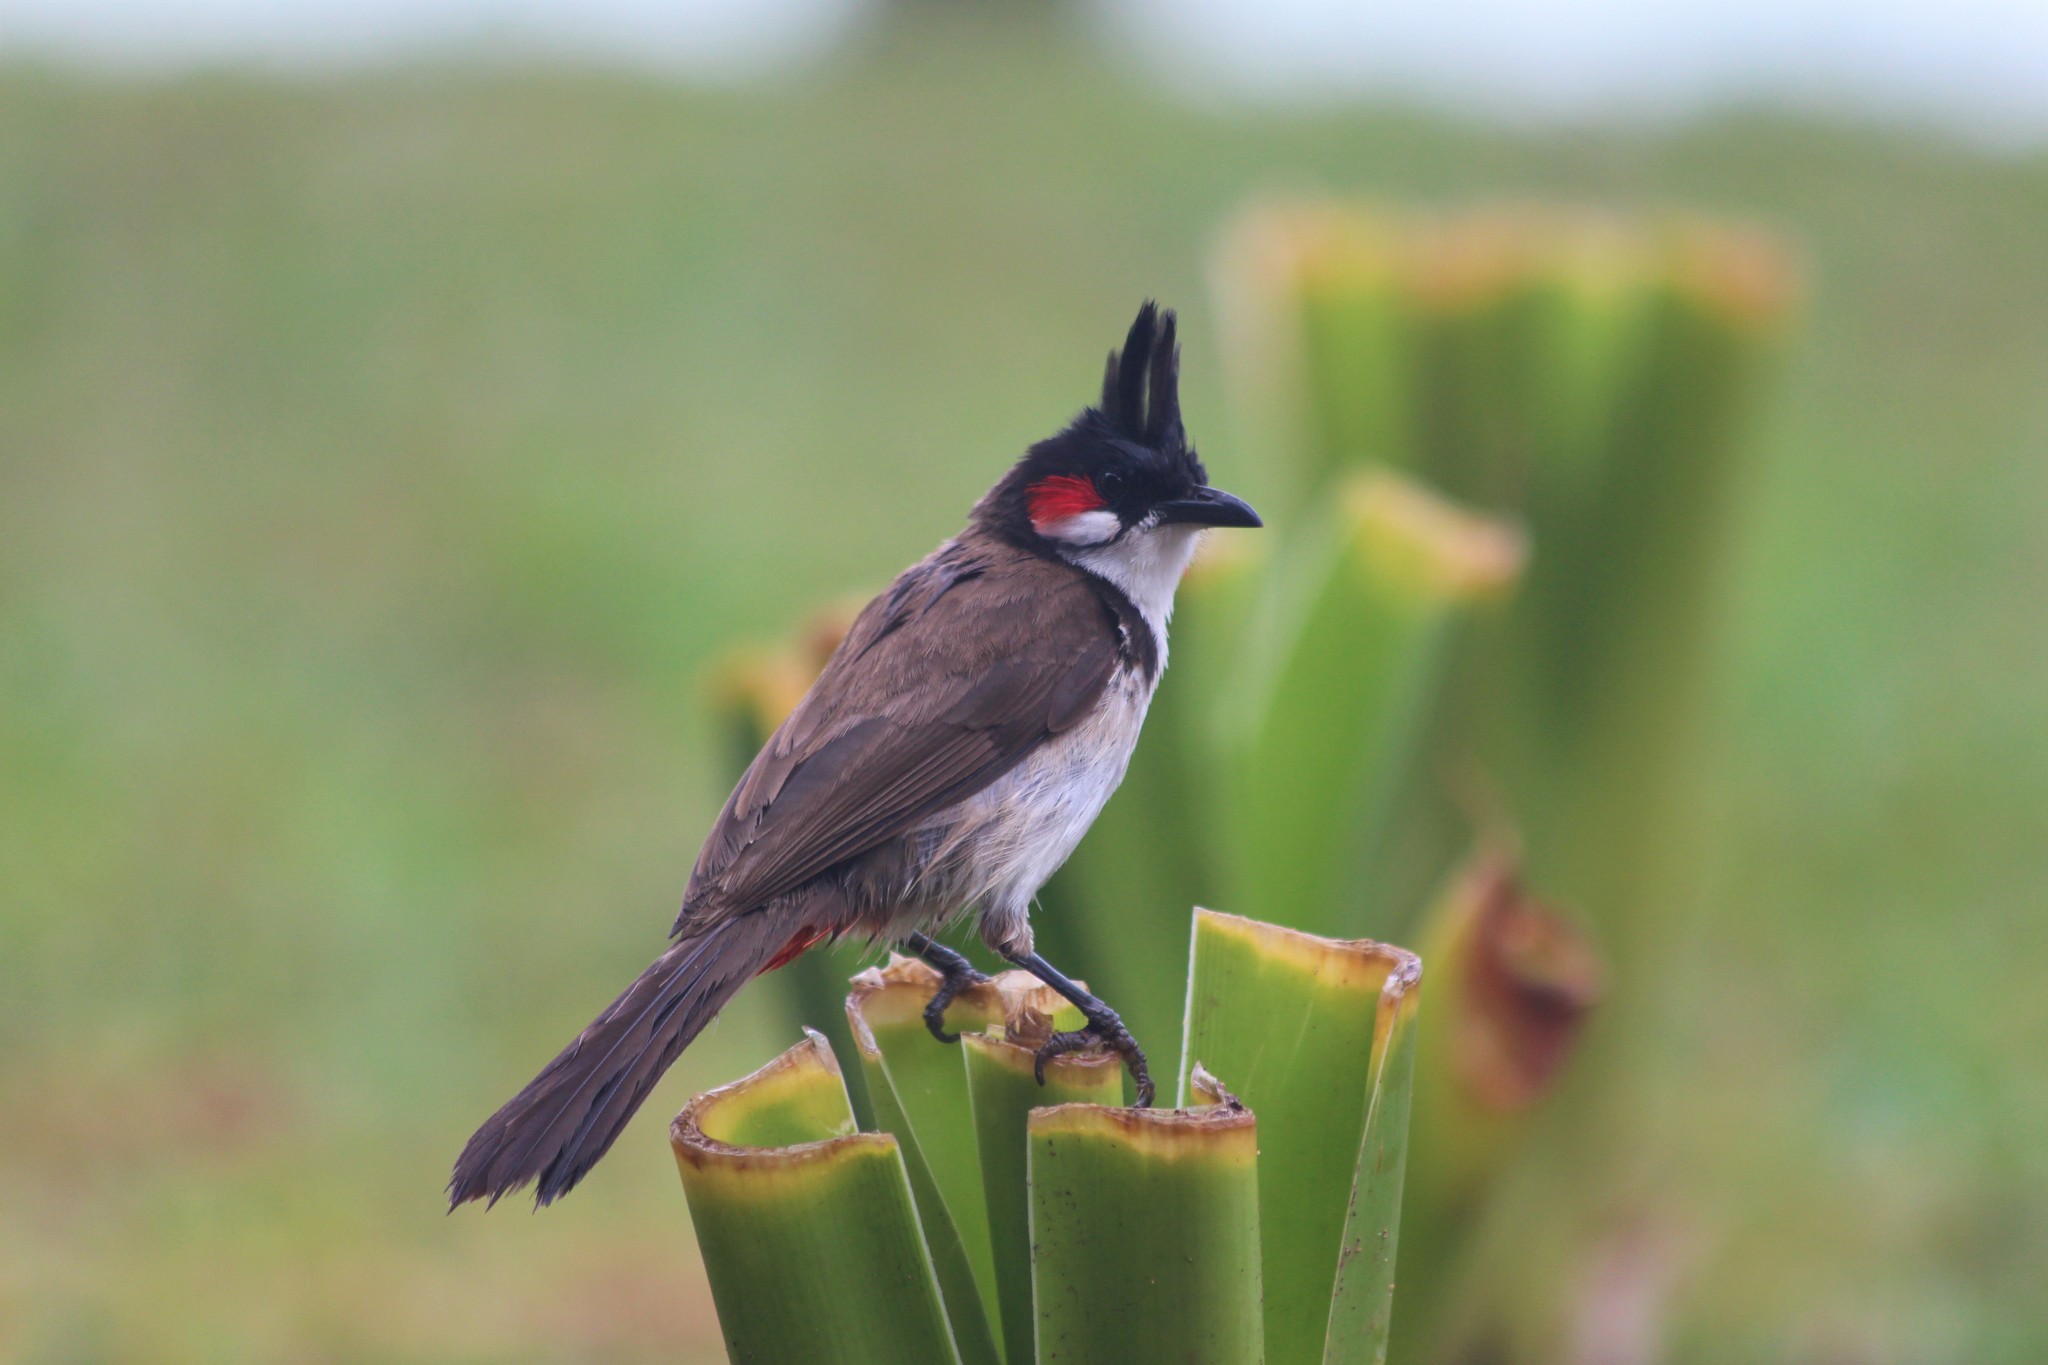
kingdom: Animalia
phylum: Chordata
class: Aves
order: Passeriformes
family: Pycnonotidae
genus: Pycnonotus
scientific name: Pycnonotus jocosus
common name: Red-whiskered bulbul
